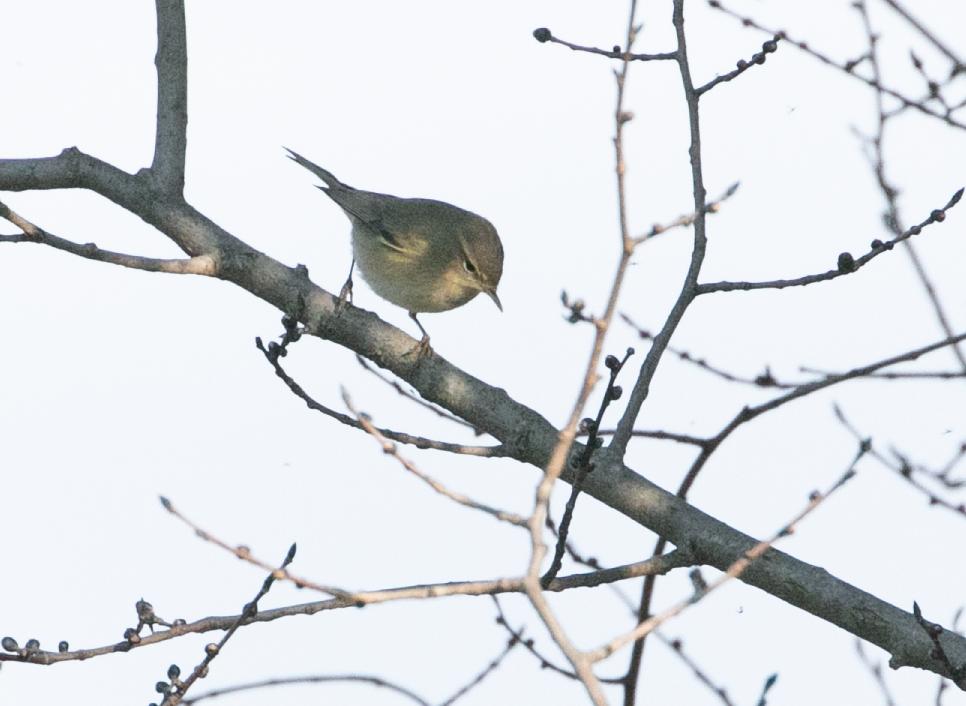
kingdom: Animalia
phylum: Chordata
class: Aves
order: Passeriformes
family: Phylloscopidae
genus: Phylloscopus
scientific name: Phylloscopus collybita
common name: Common chiffchaff
